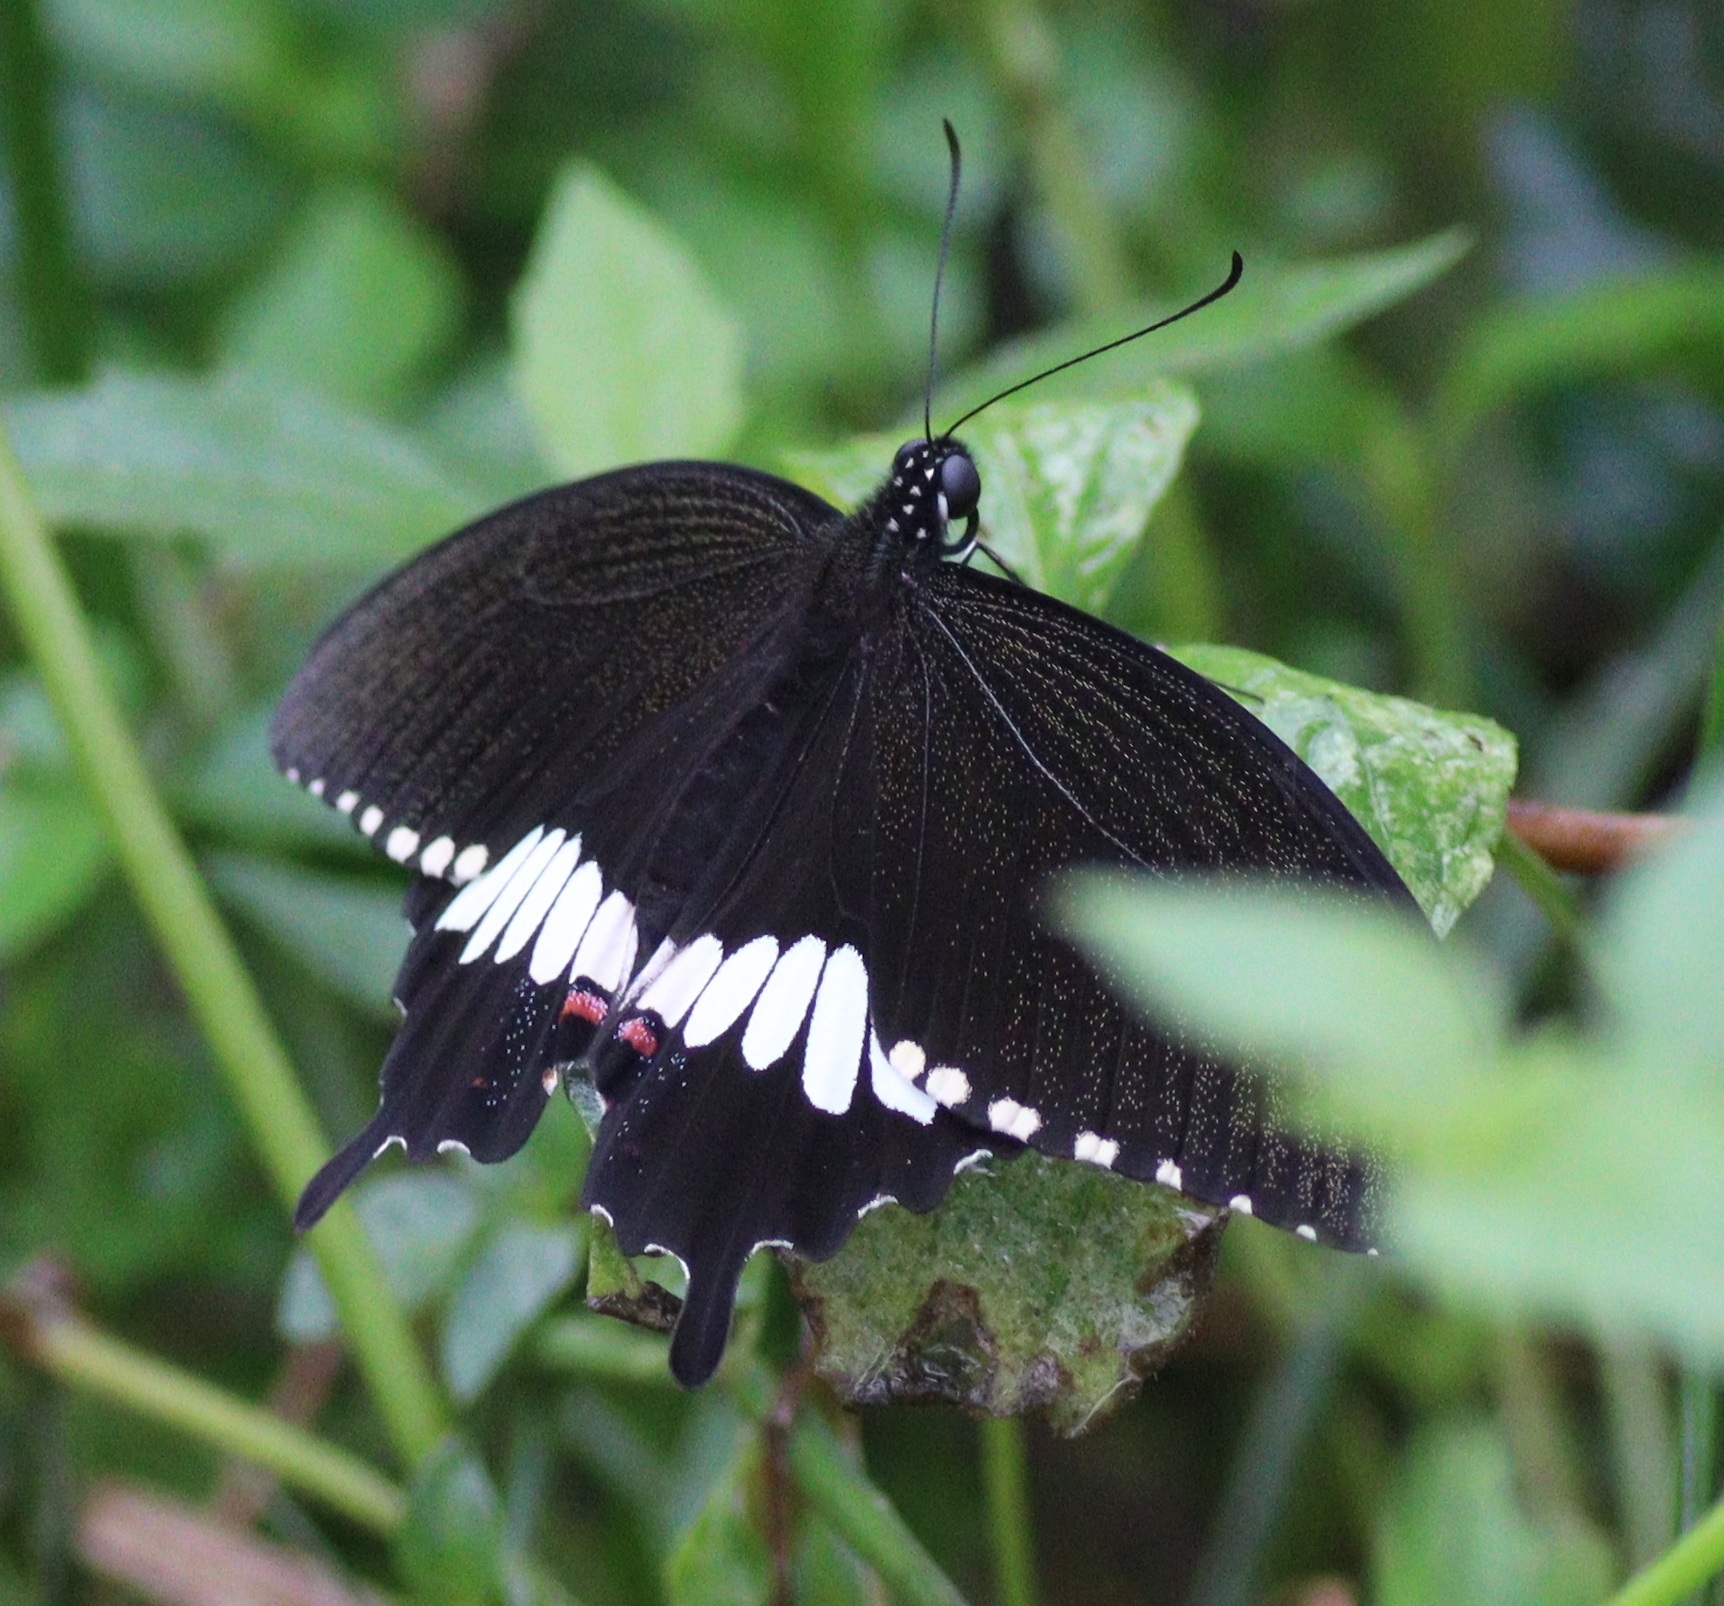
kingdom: Animalia
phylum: Arthropoda
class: Insecta
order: Lepidoptera
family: Papilionidae
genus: Papilio
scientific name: Papilio polytes
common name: Common mormon
